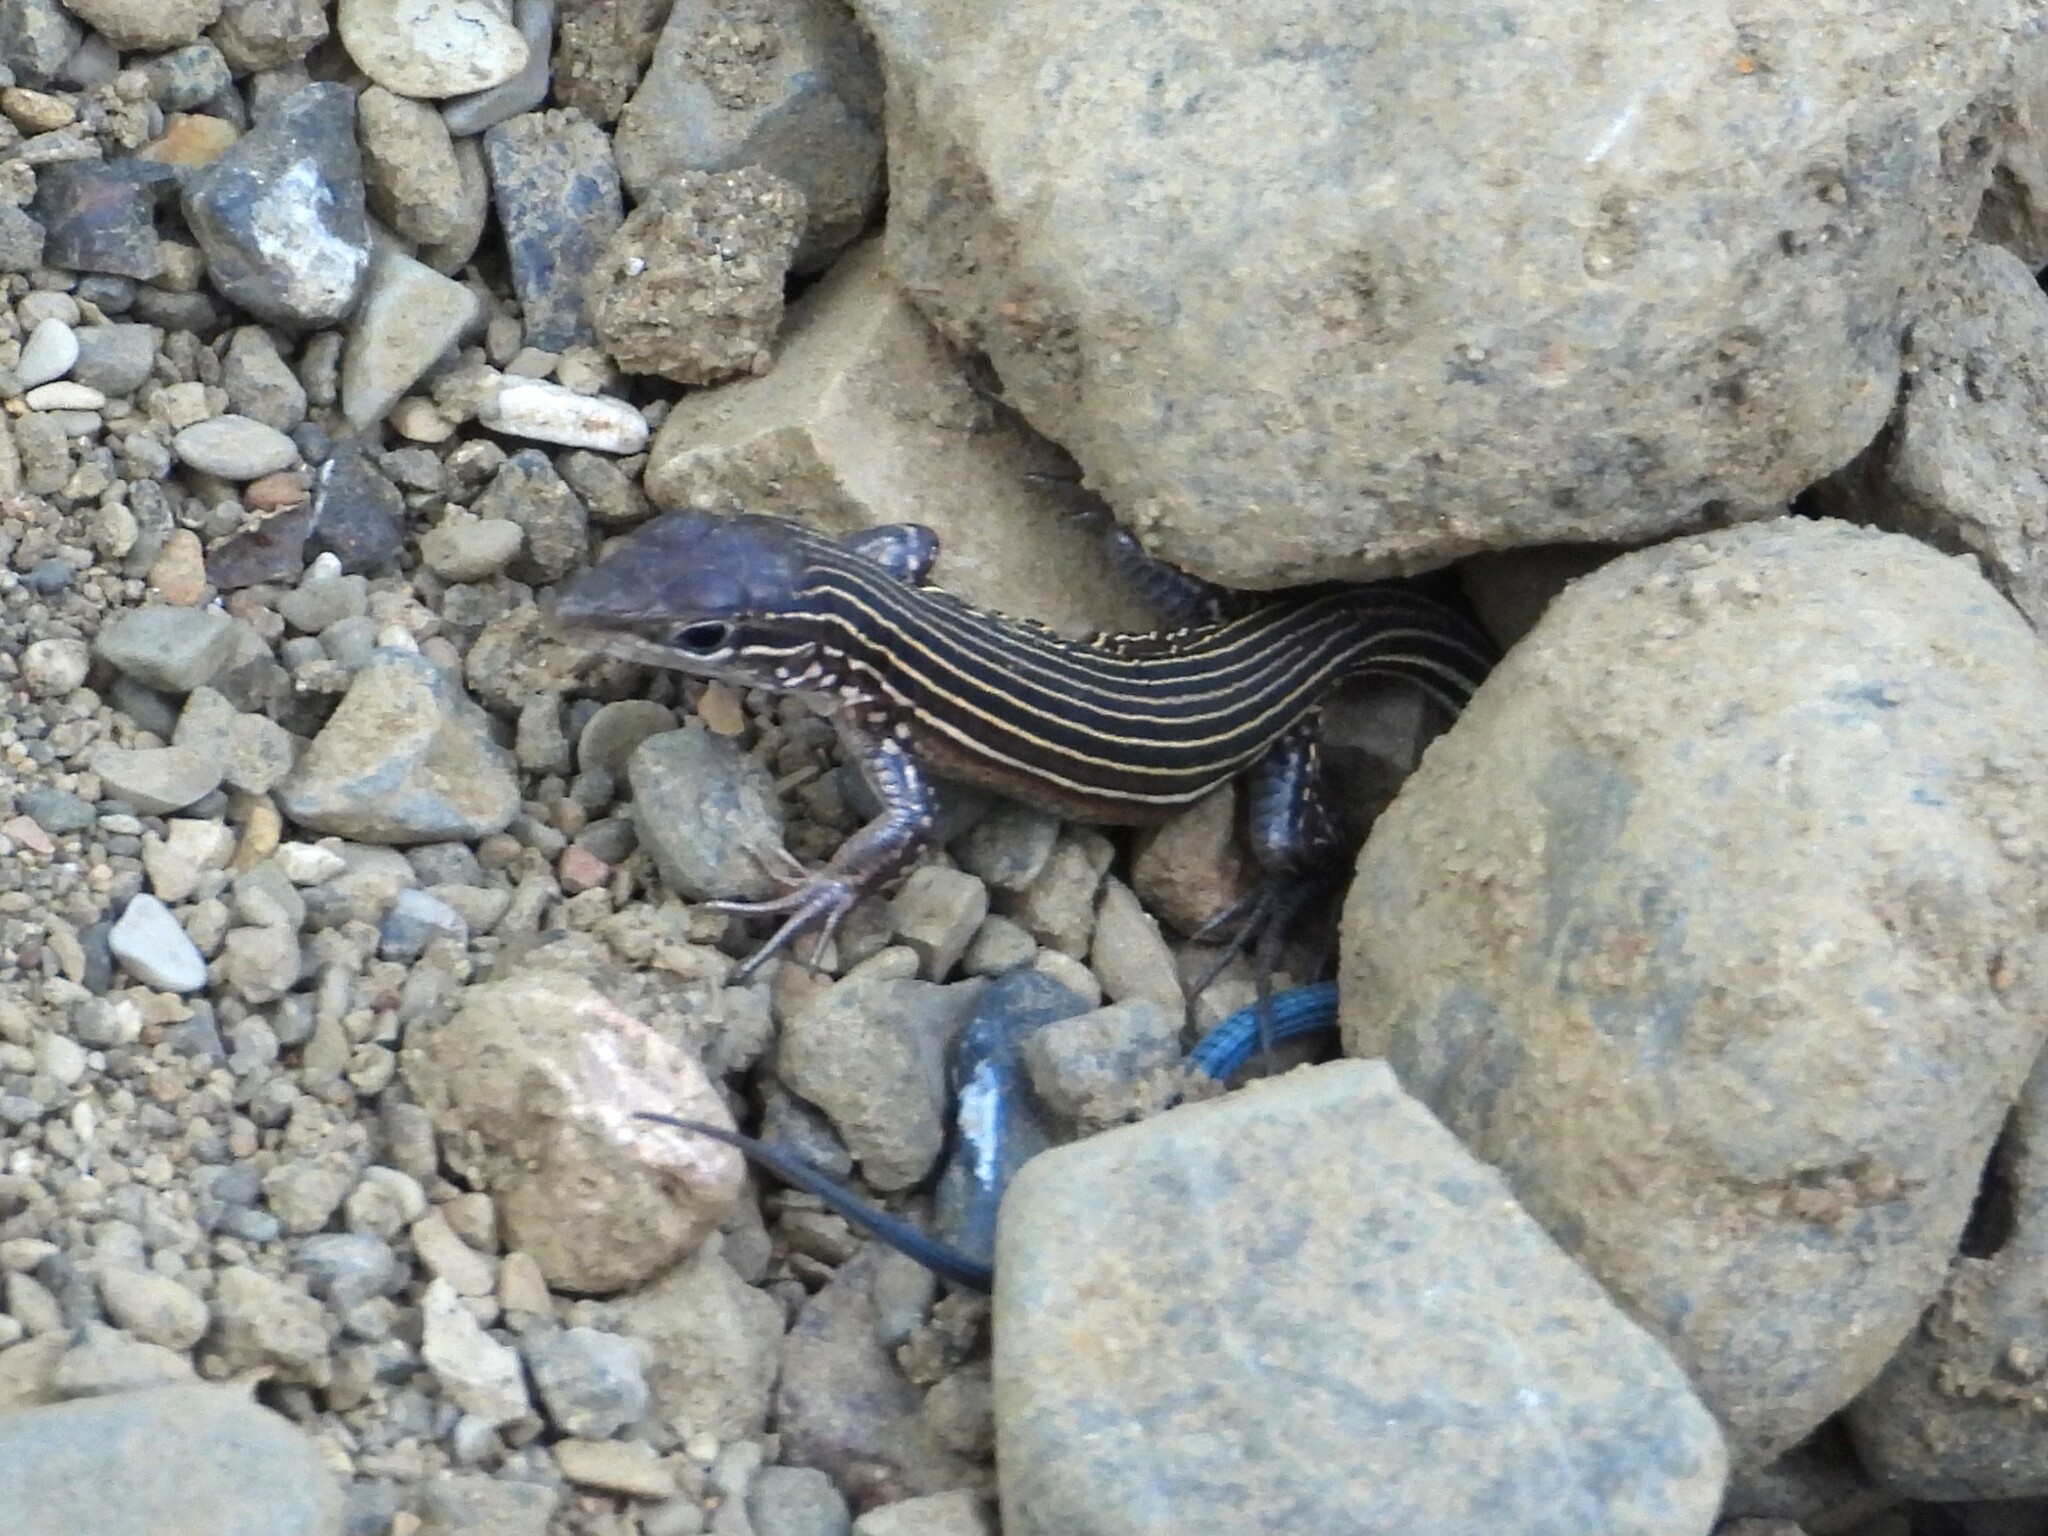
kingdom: Animalia
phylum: Chordata
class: Squamata
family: Teiidae
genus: Aspidoscelis
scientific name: Aspidoscelis deppii
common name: Blackbelly racerunner
